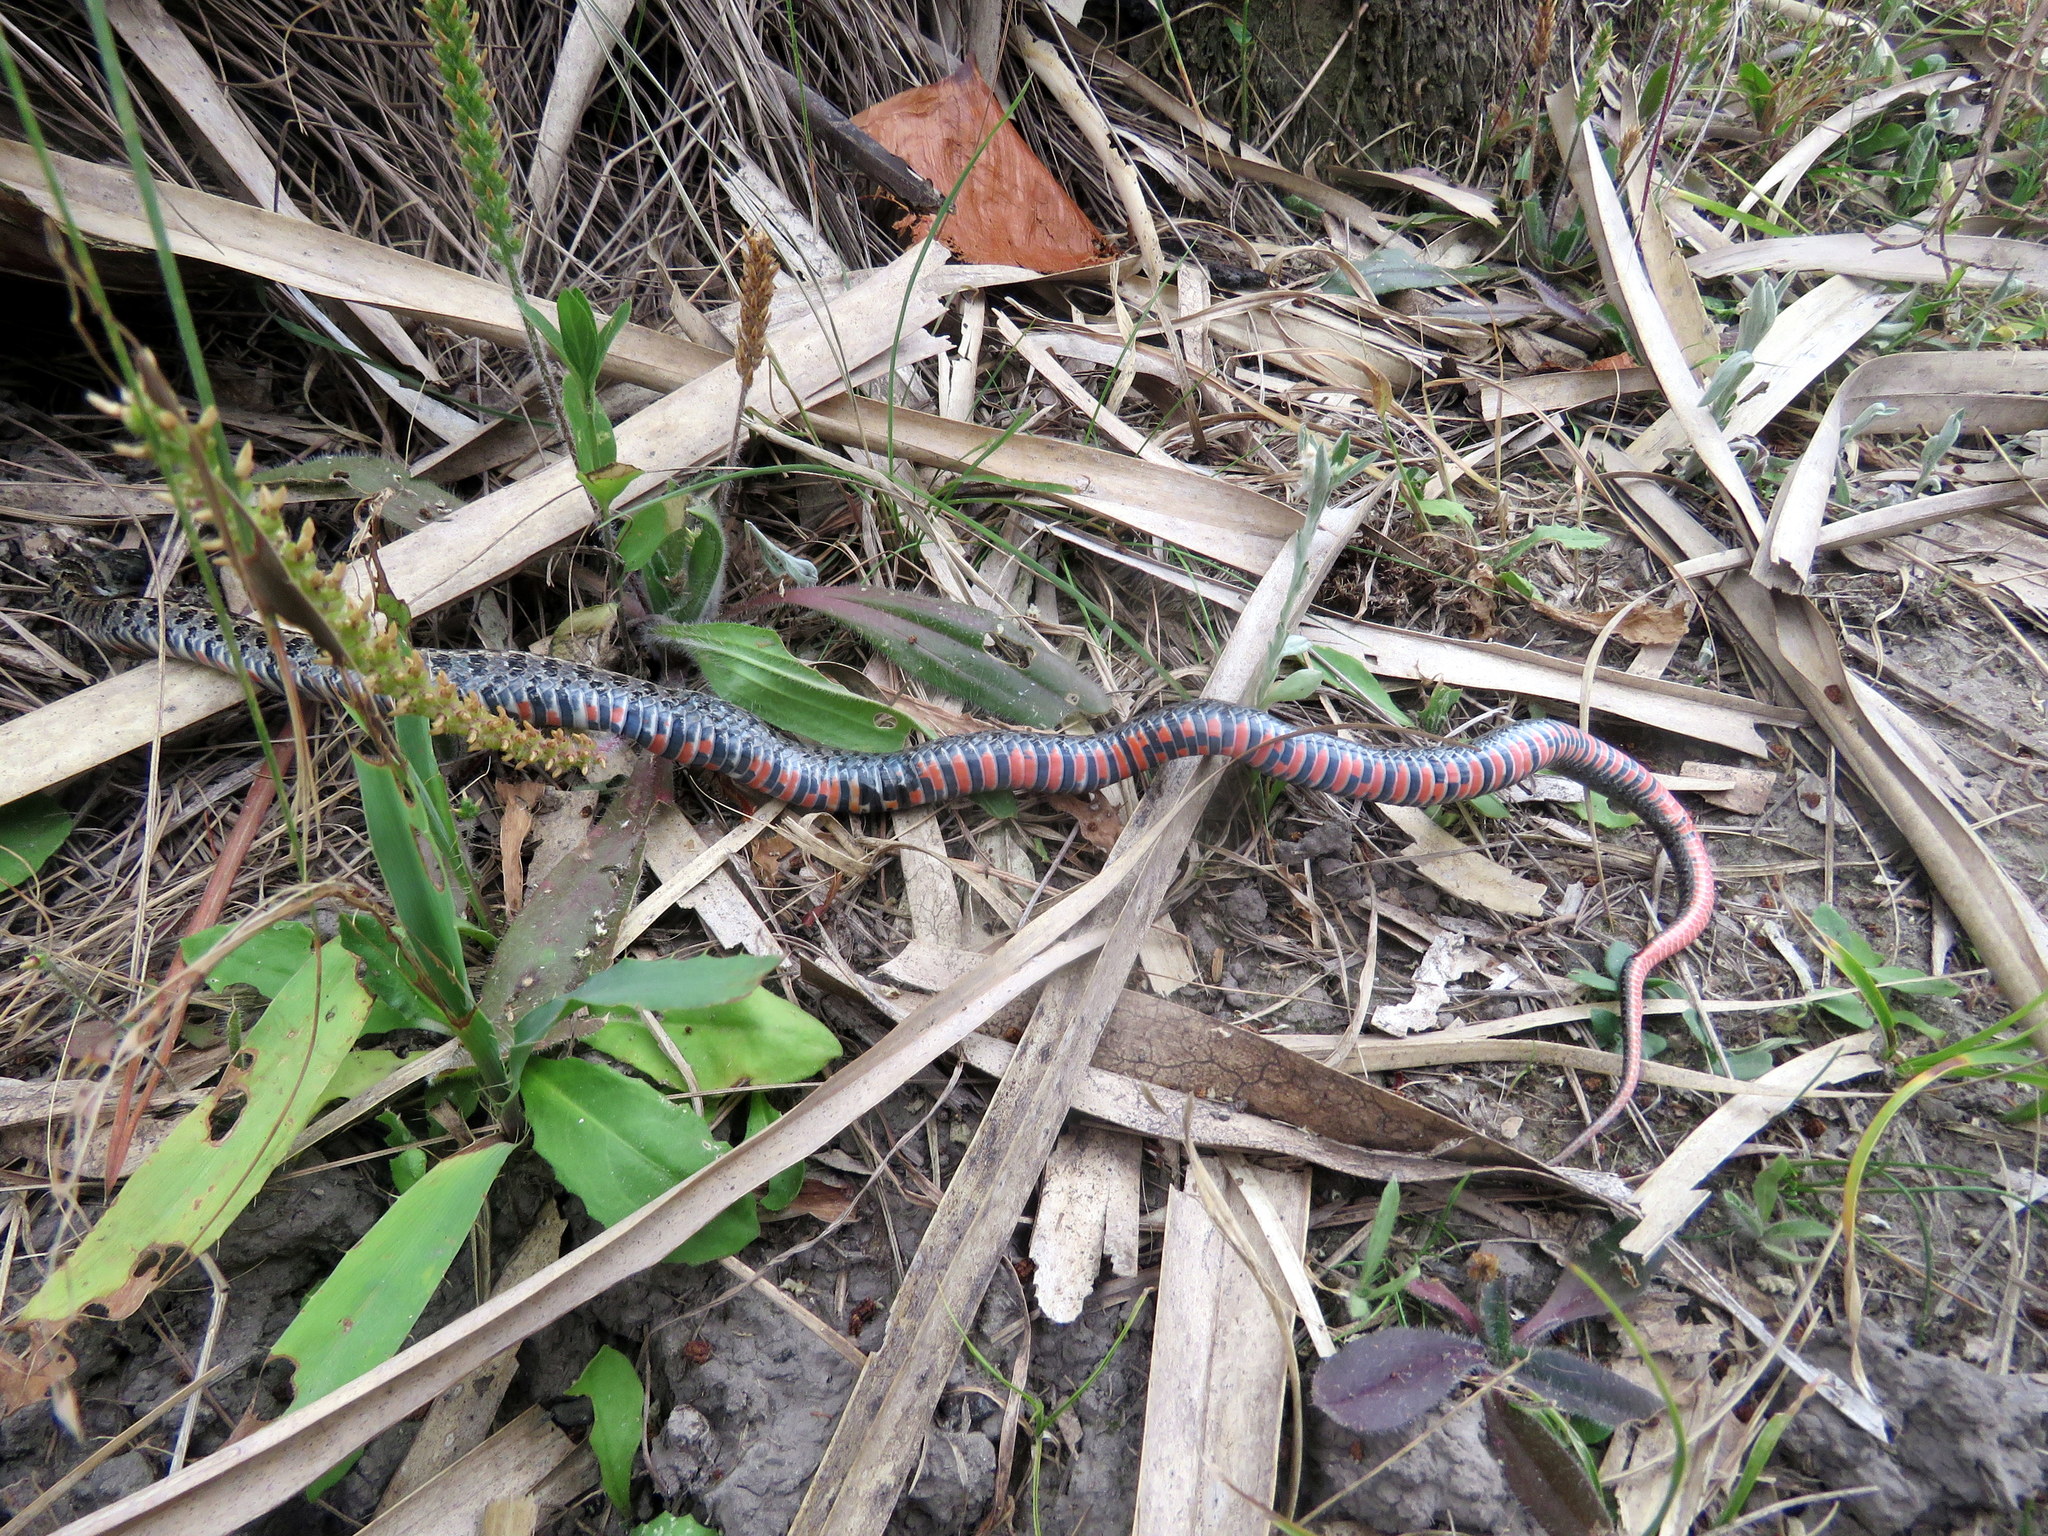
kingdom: Animalia
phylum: Chordata
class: Squamata
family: Colubridae
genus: Lygophis
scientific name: Lygophis anomalus
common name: English common name not available
